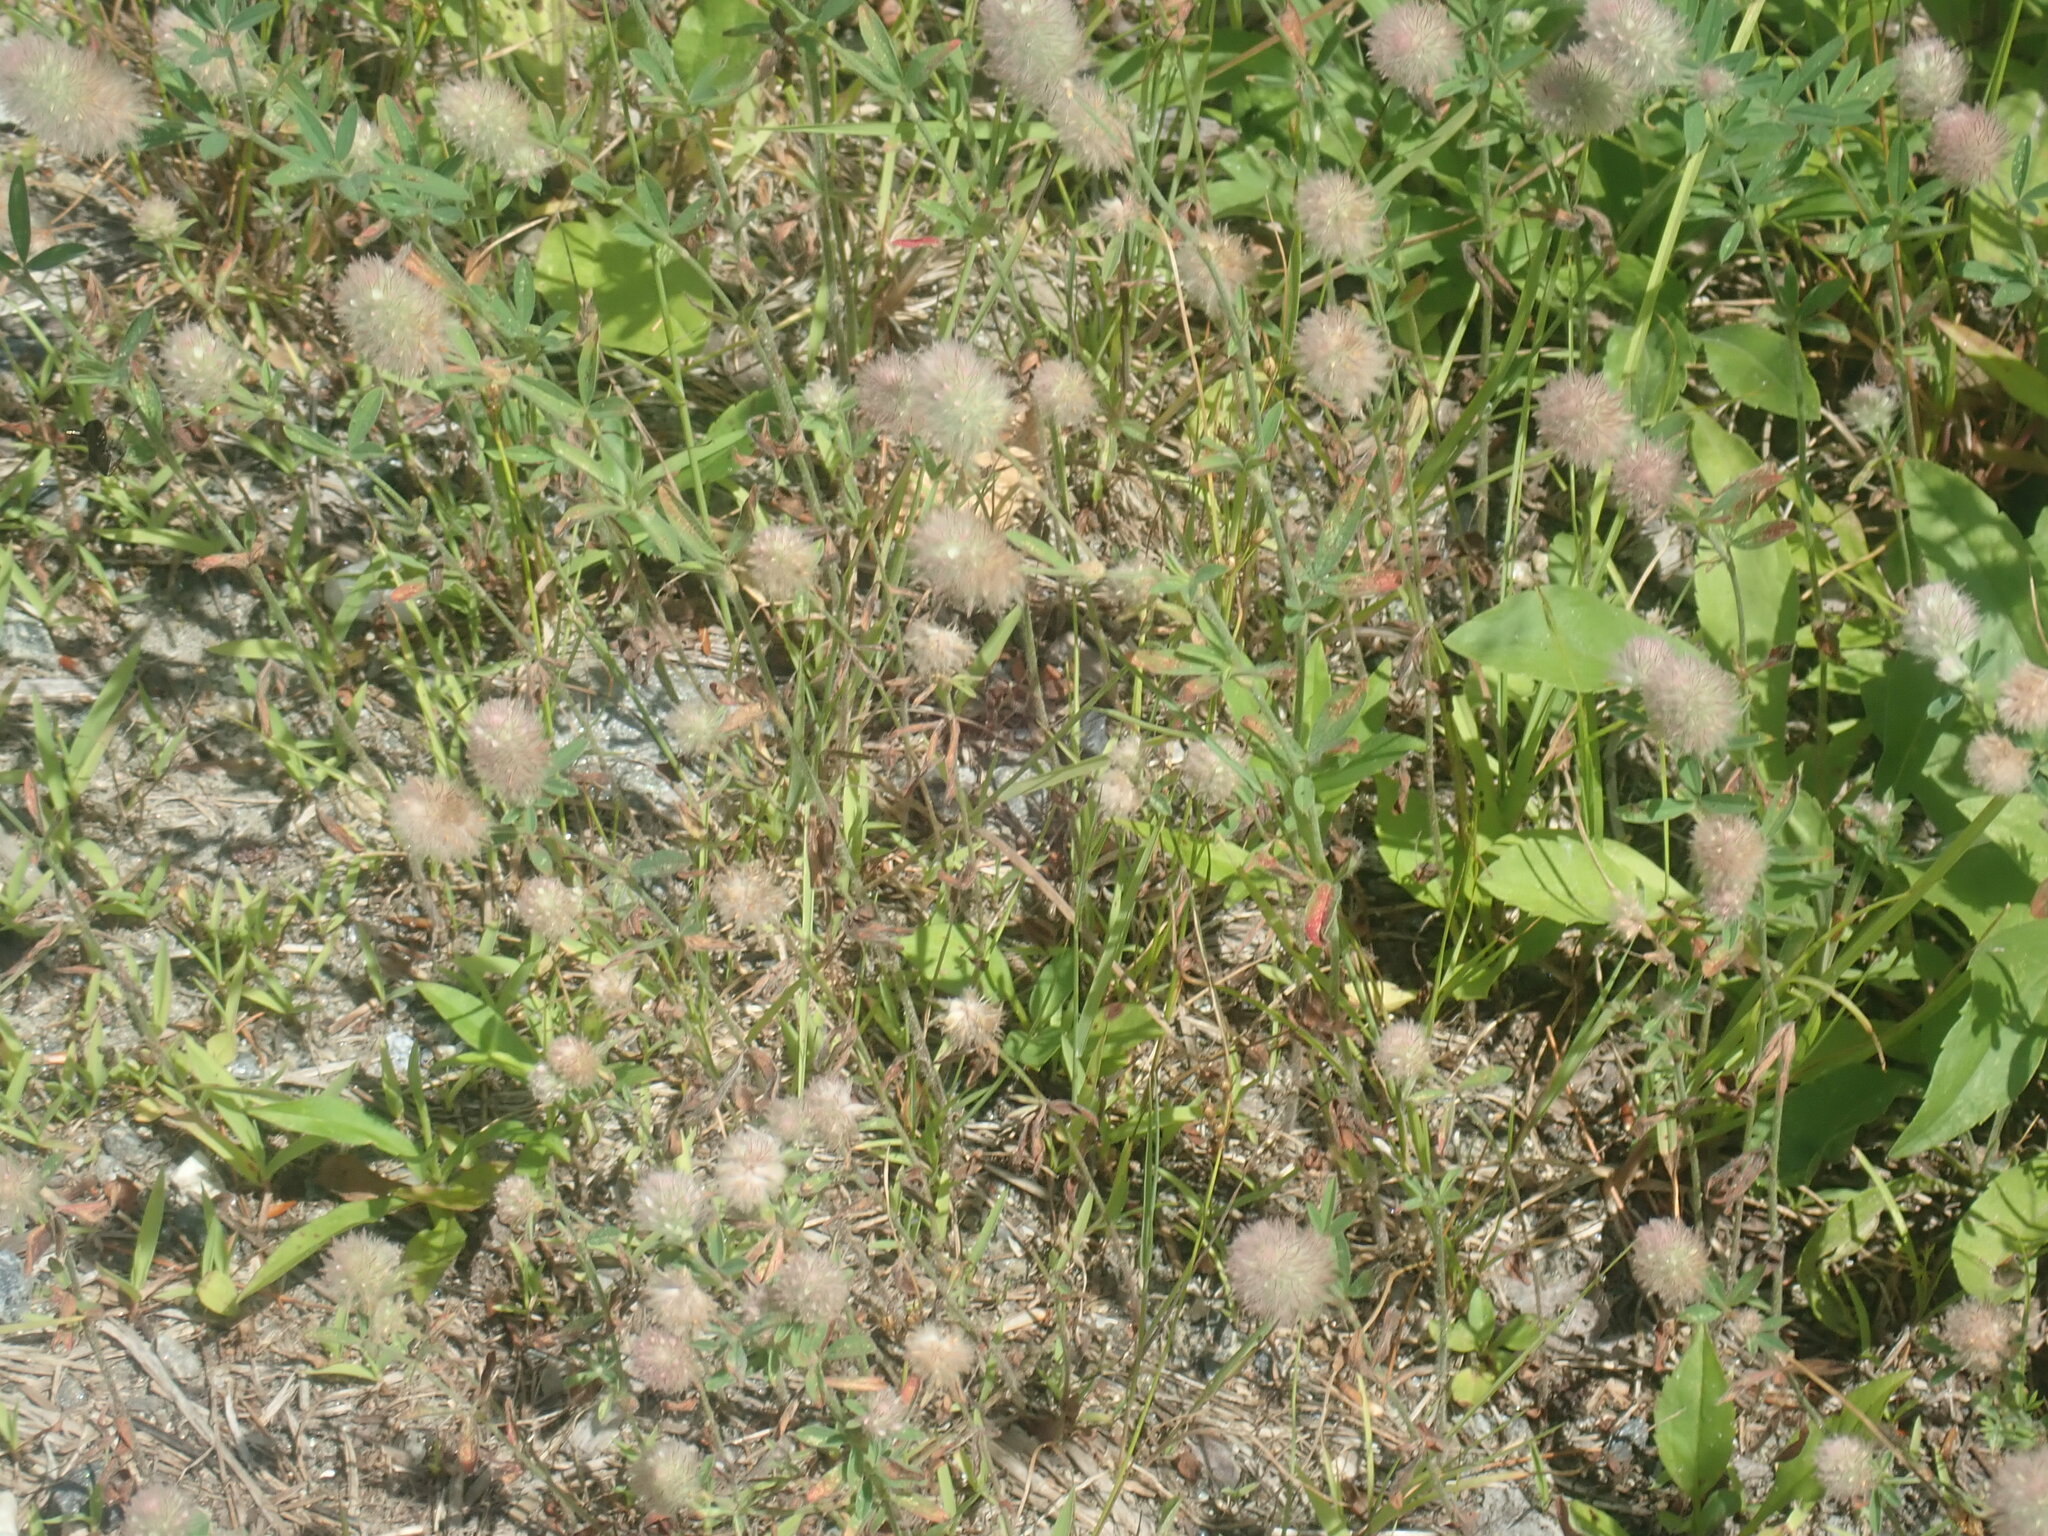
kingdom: Plantae
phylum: Tracheophyta
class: Magnoliopsida
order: Fabales
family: Fabaceae
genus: Trifolium
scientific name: Trifolium arvense
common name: Hare's-foot clover
